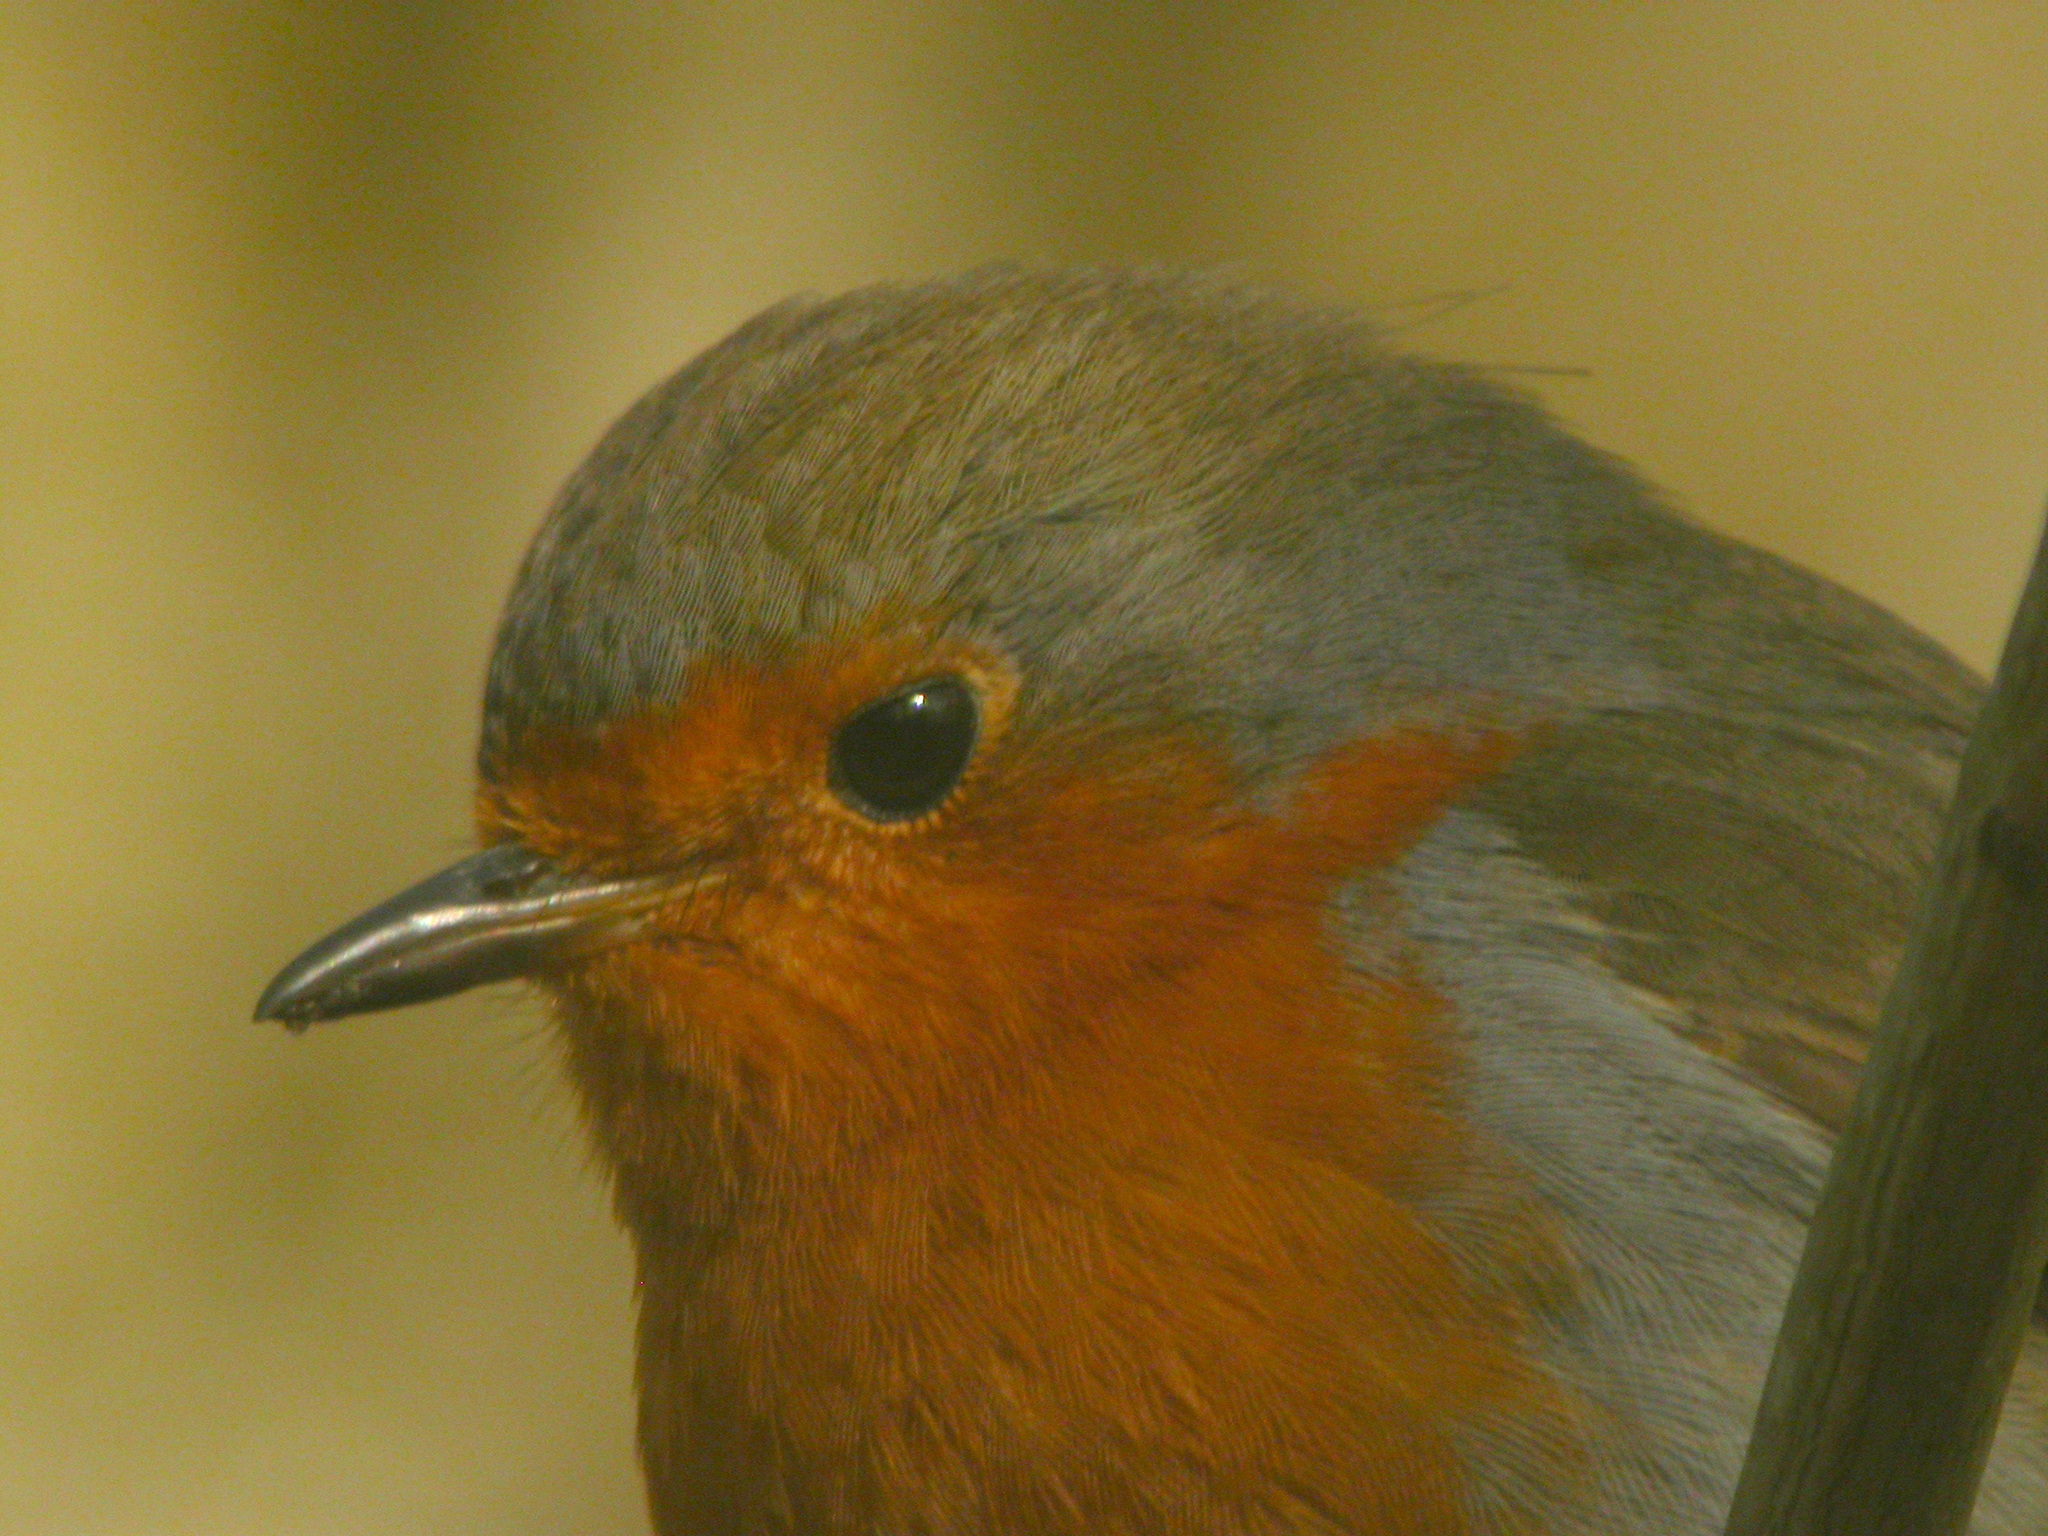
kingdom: Animalia
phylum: Chordata
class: Aves
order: Passeriformes
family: Muscicapidae
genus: Erithacus
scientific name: Erithacus rubecula
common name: European robin
